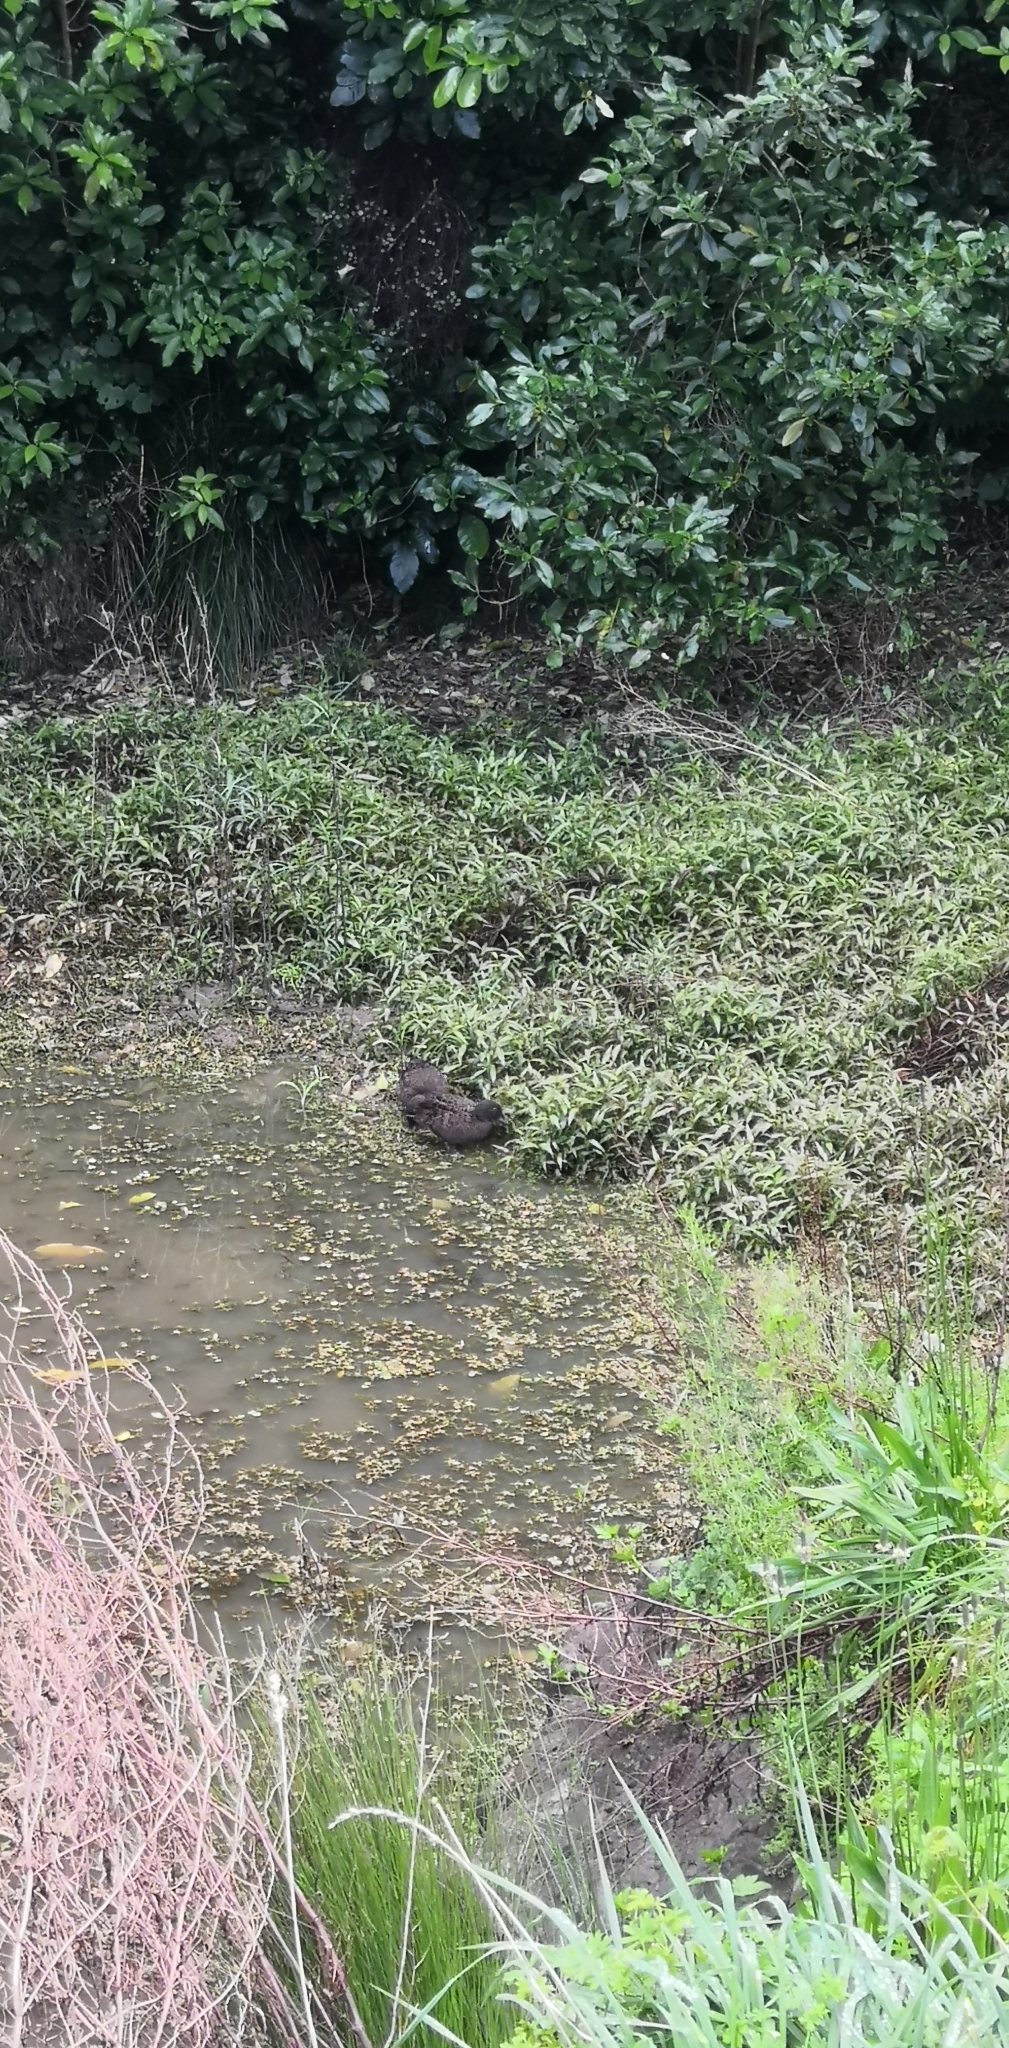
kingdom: Animalia
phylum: Chordata
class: Aves
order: Anseriformes
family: Anatidae
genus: Anas
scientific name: Anas chlorotis
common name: Brown teal
